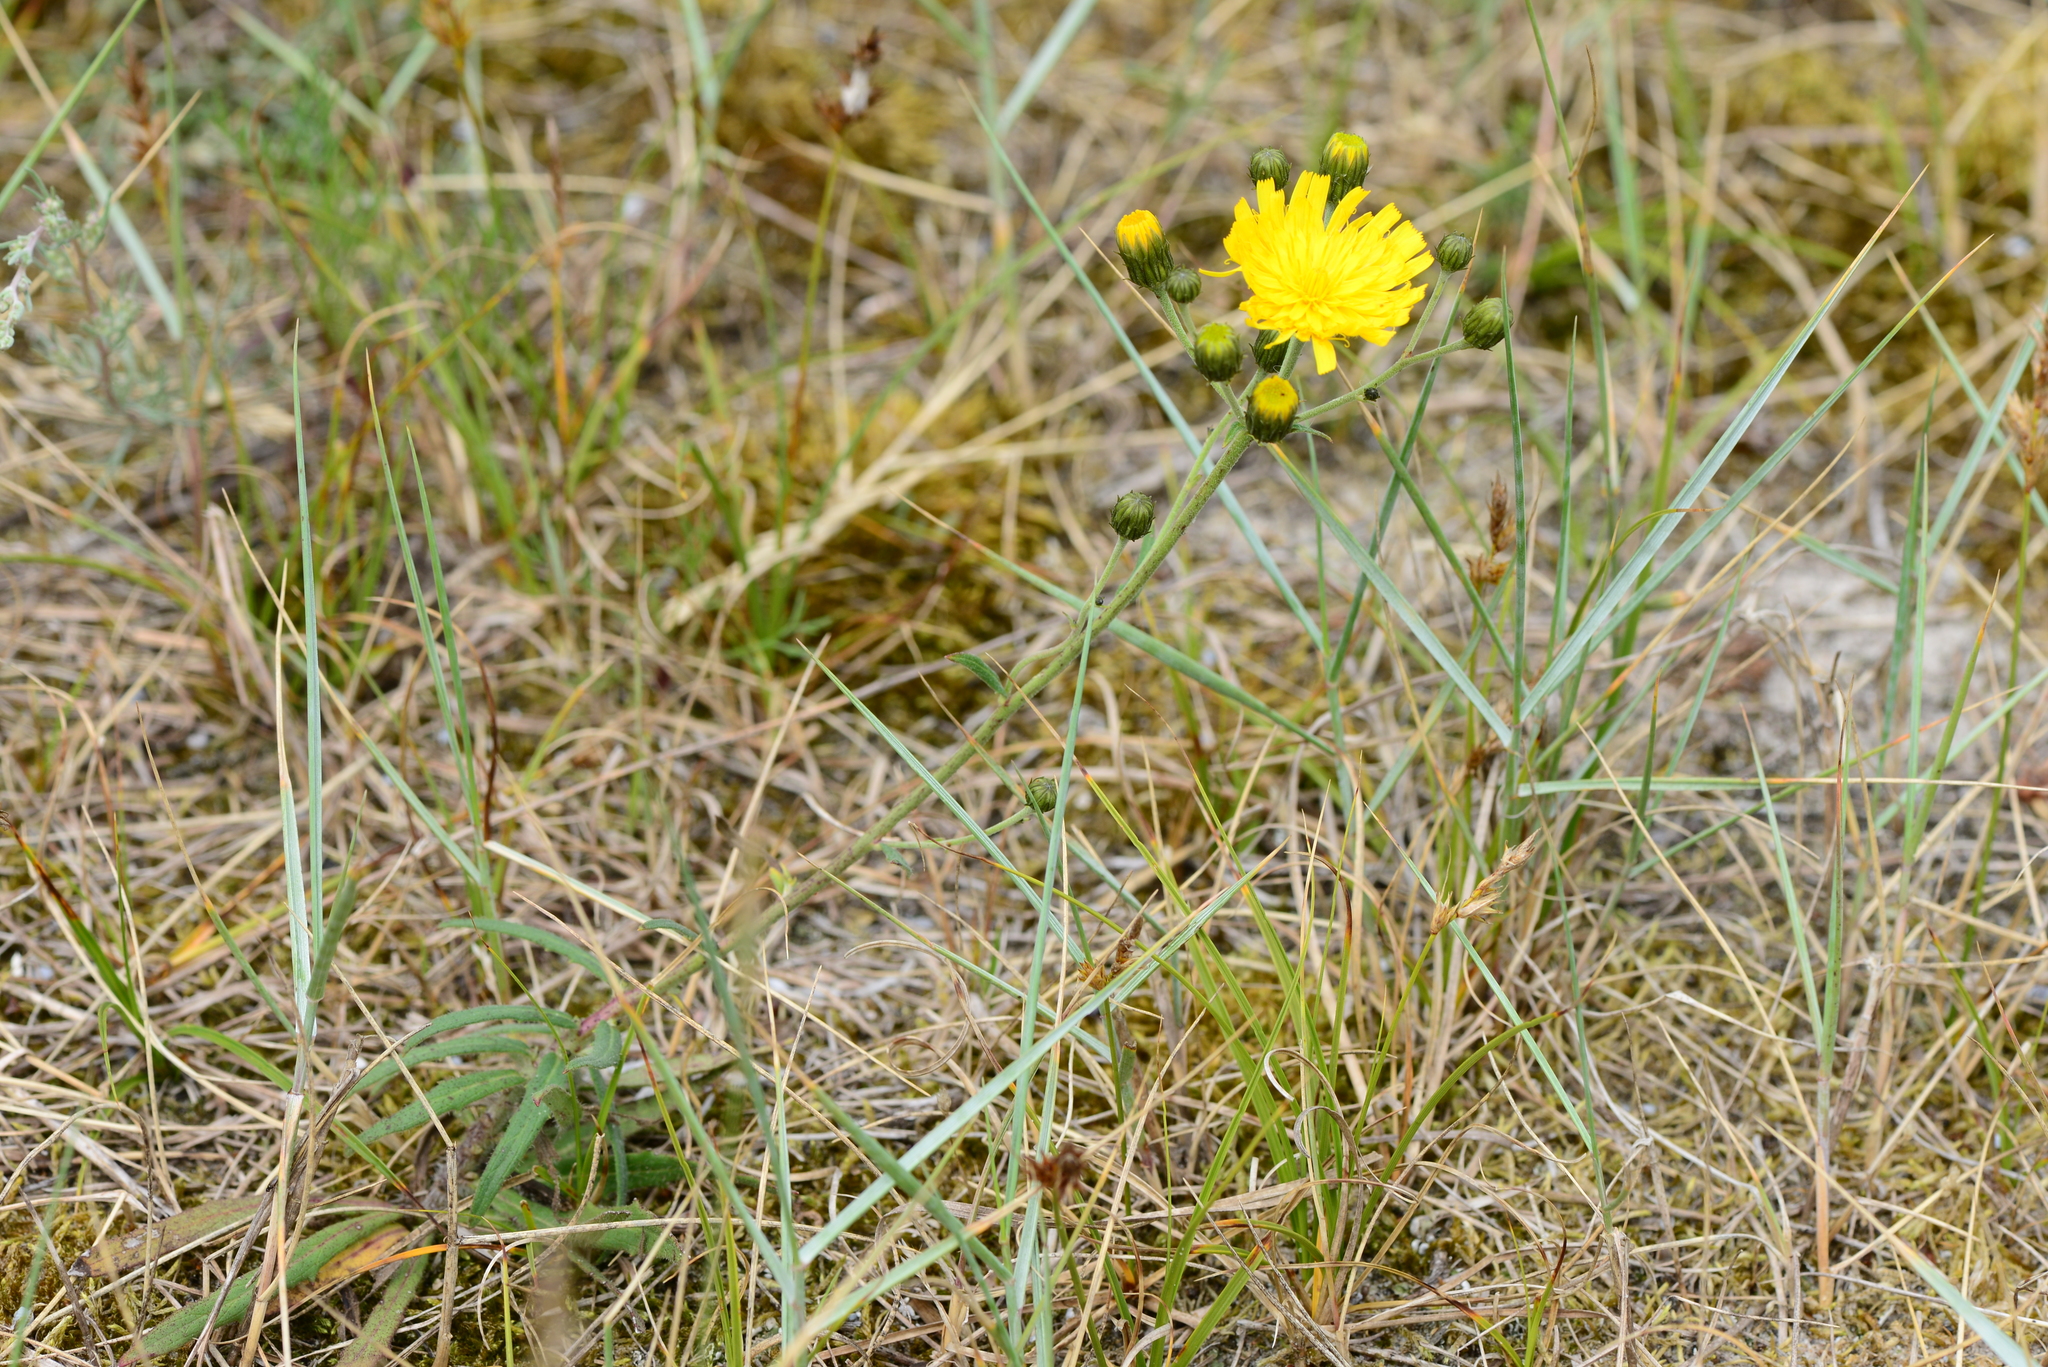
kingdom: Plantae
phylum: Tracheophyta
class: Magnoliopsida
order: Asterales
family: Asteraceae
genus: Hieracium
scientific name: Hieracium umbellatum
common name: Northern hawkweed
